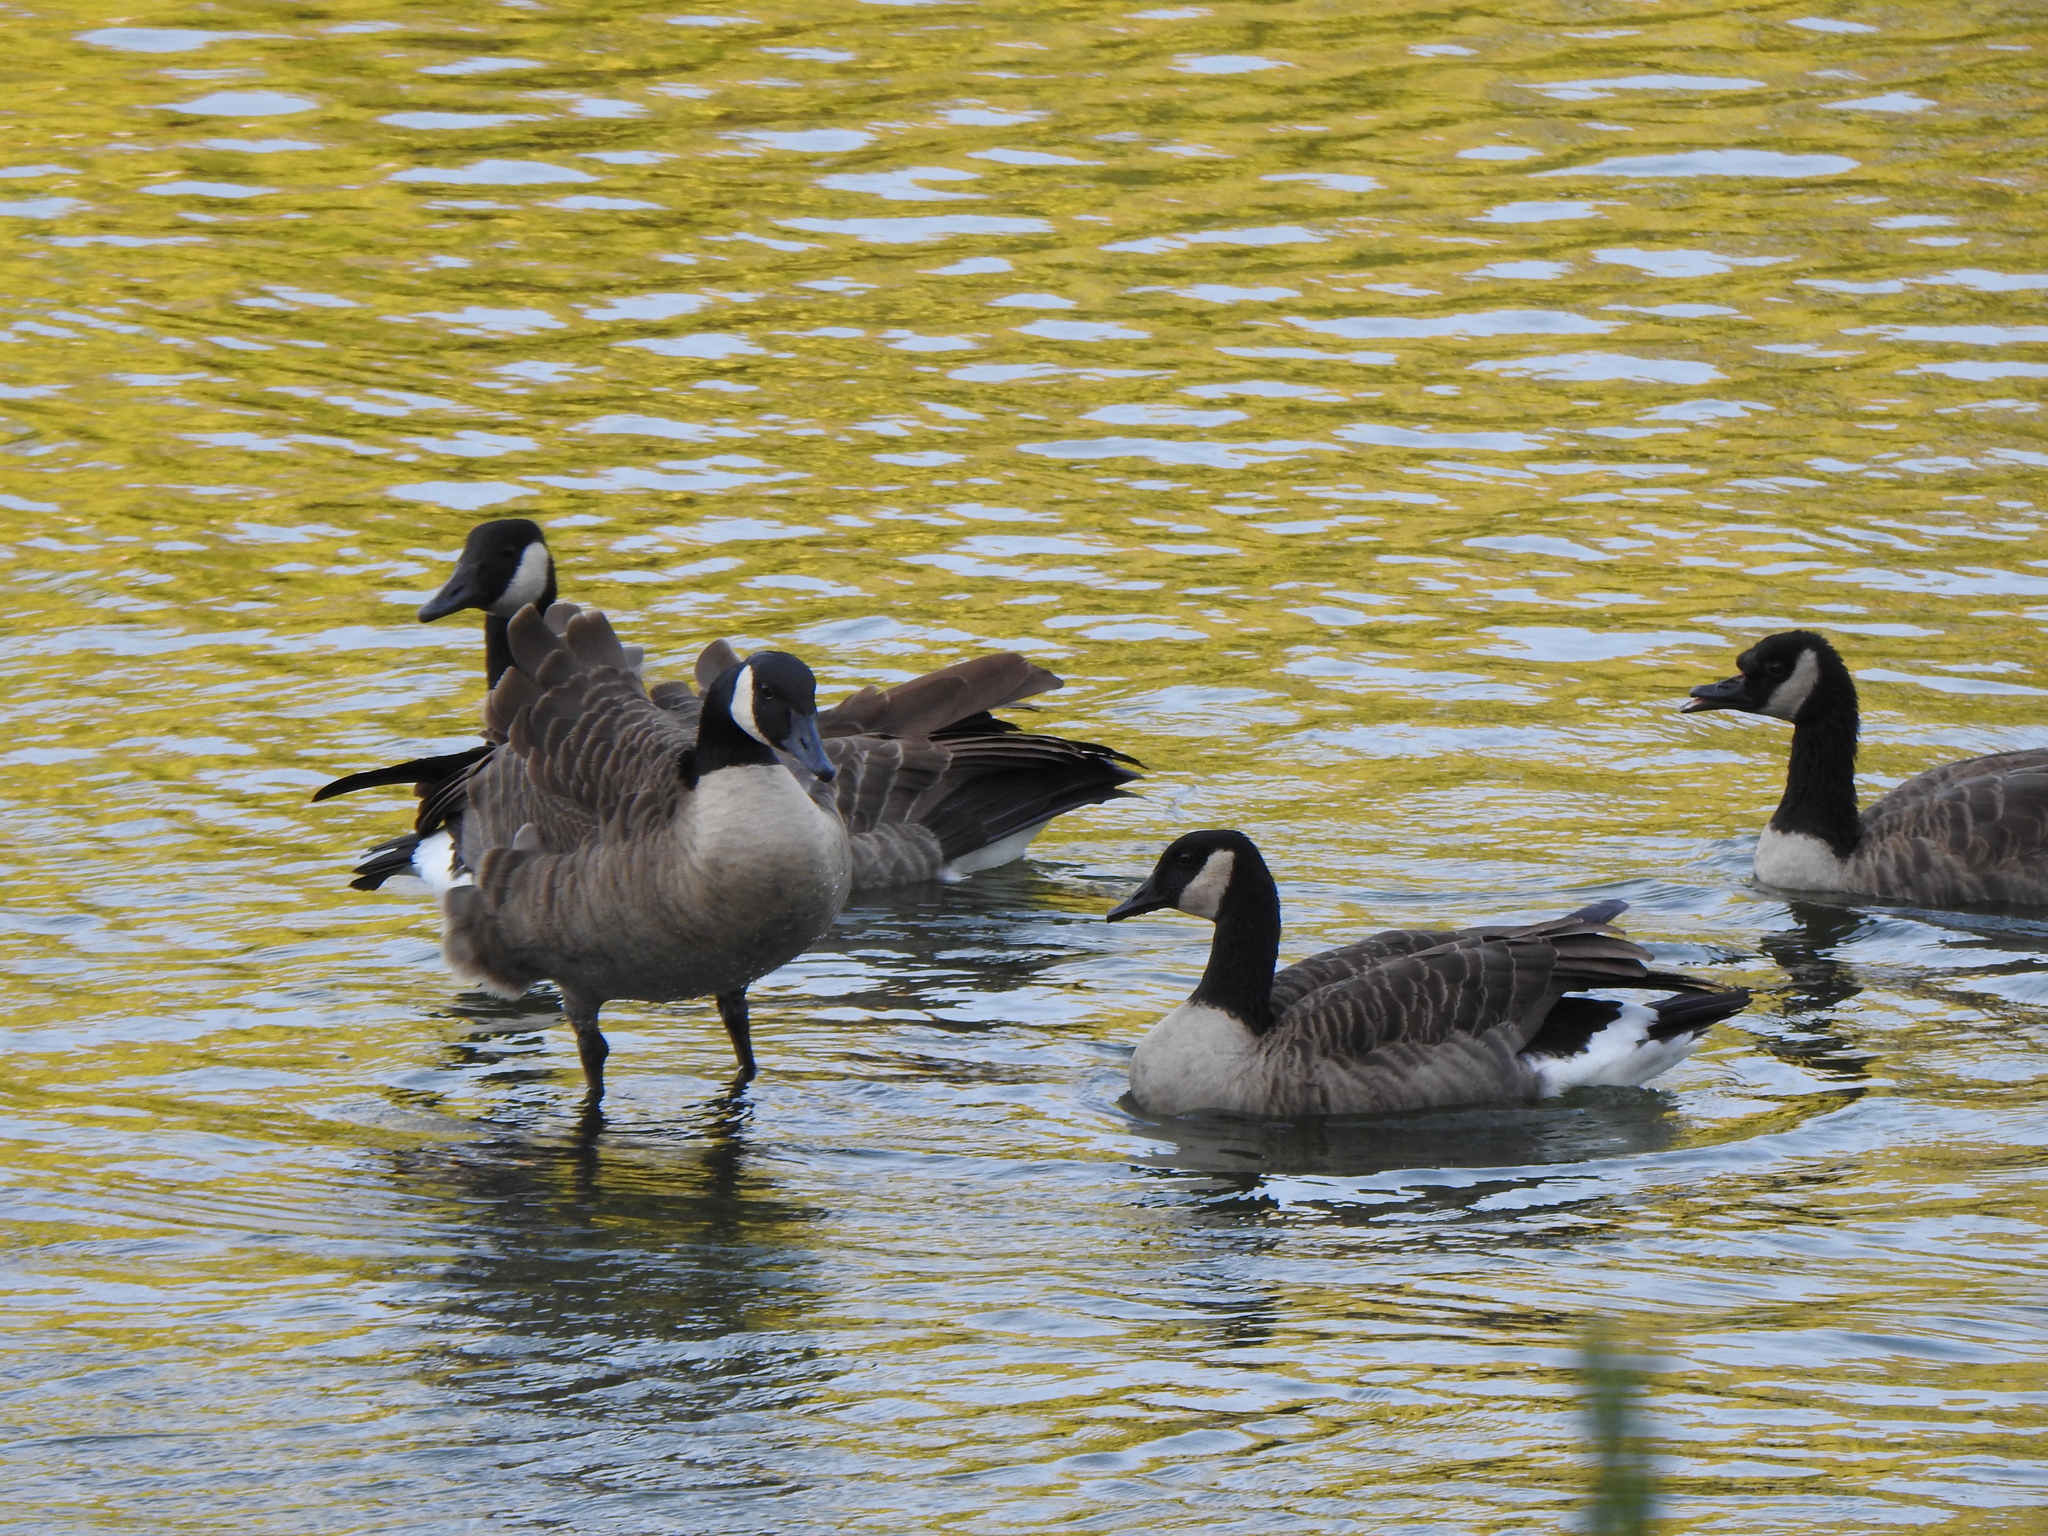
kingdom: Animalia
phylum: Chordata
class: Aves
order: Anseriformes
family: Anatidae
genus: Branta
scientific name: Branta canadensis
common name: Canada goose
